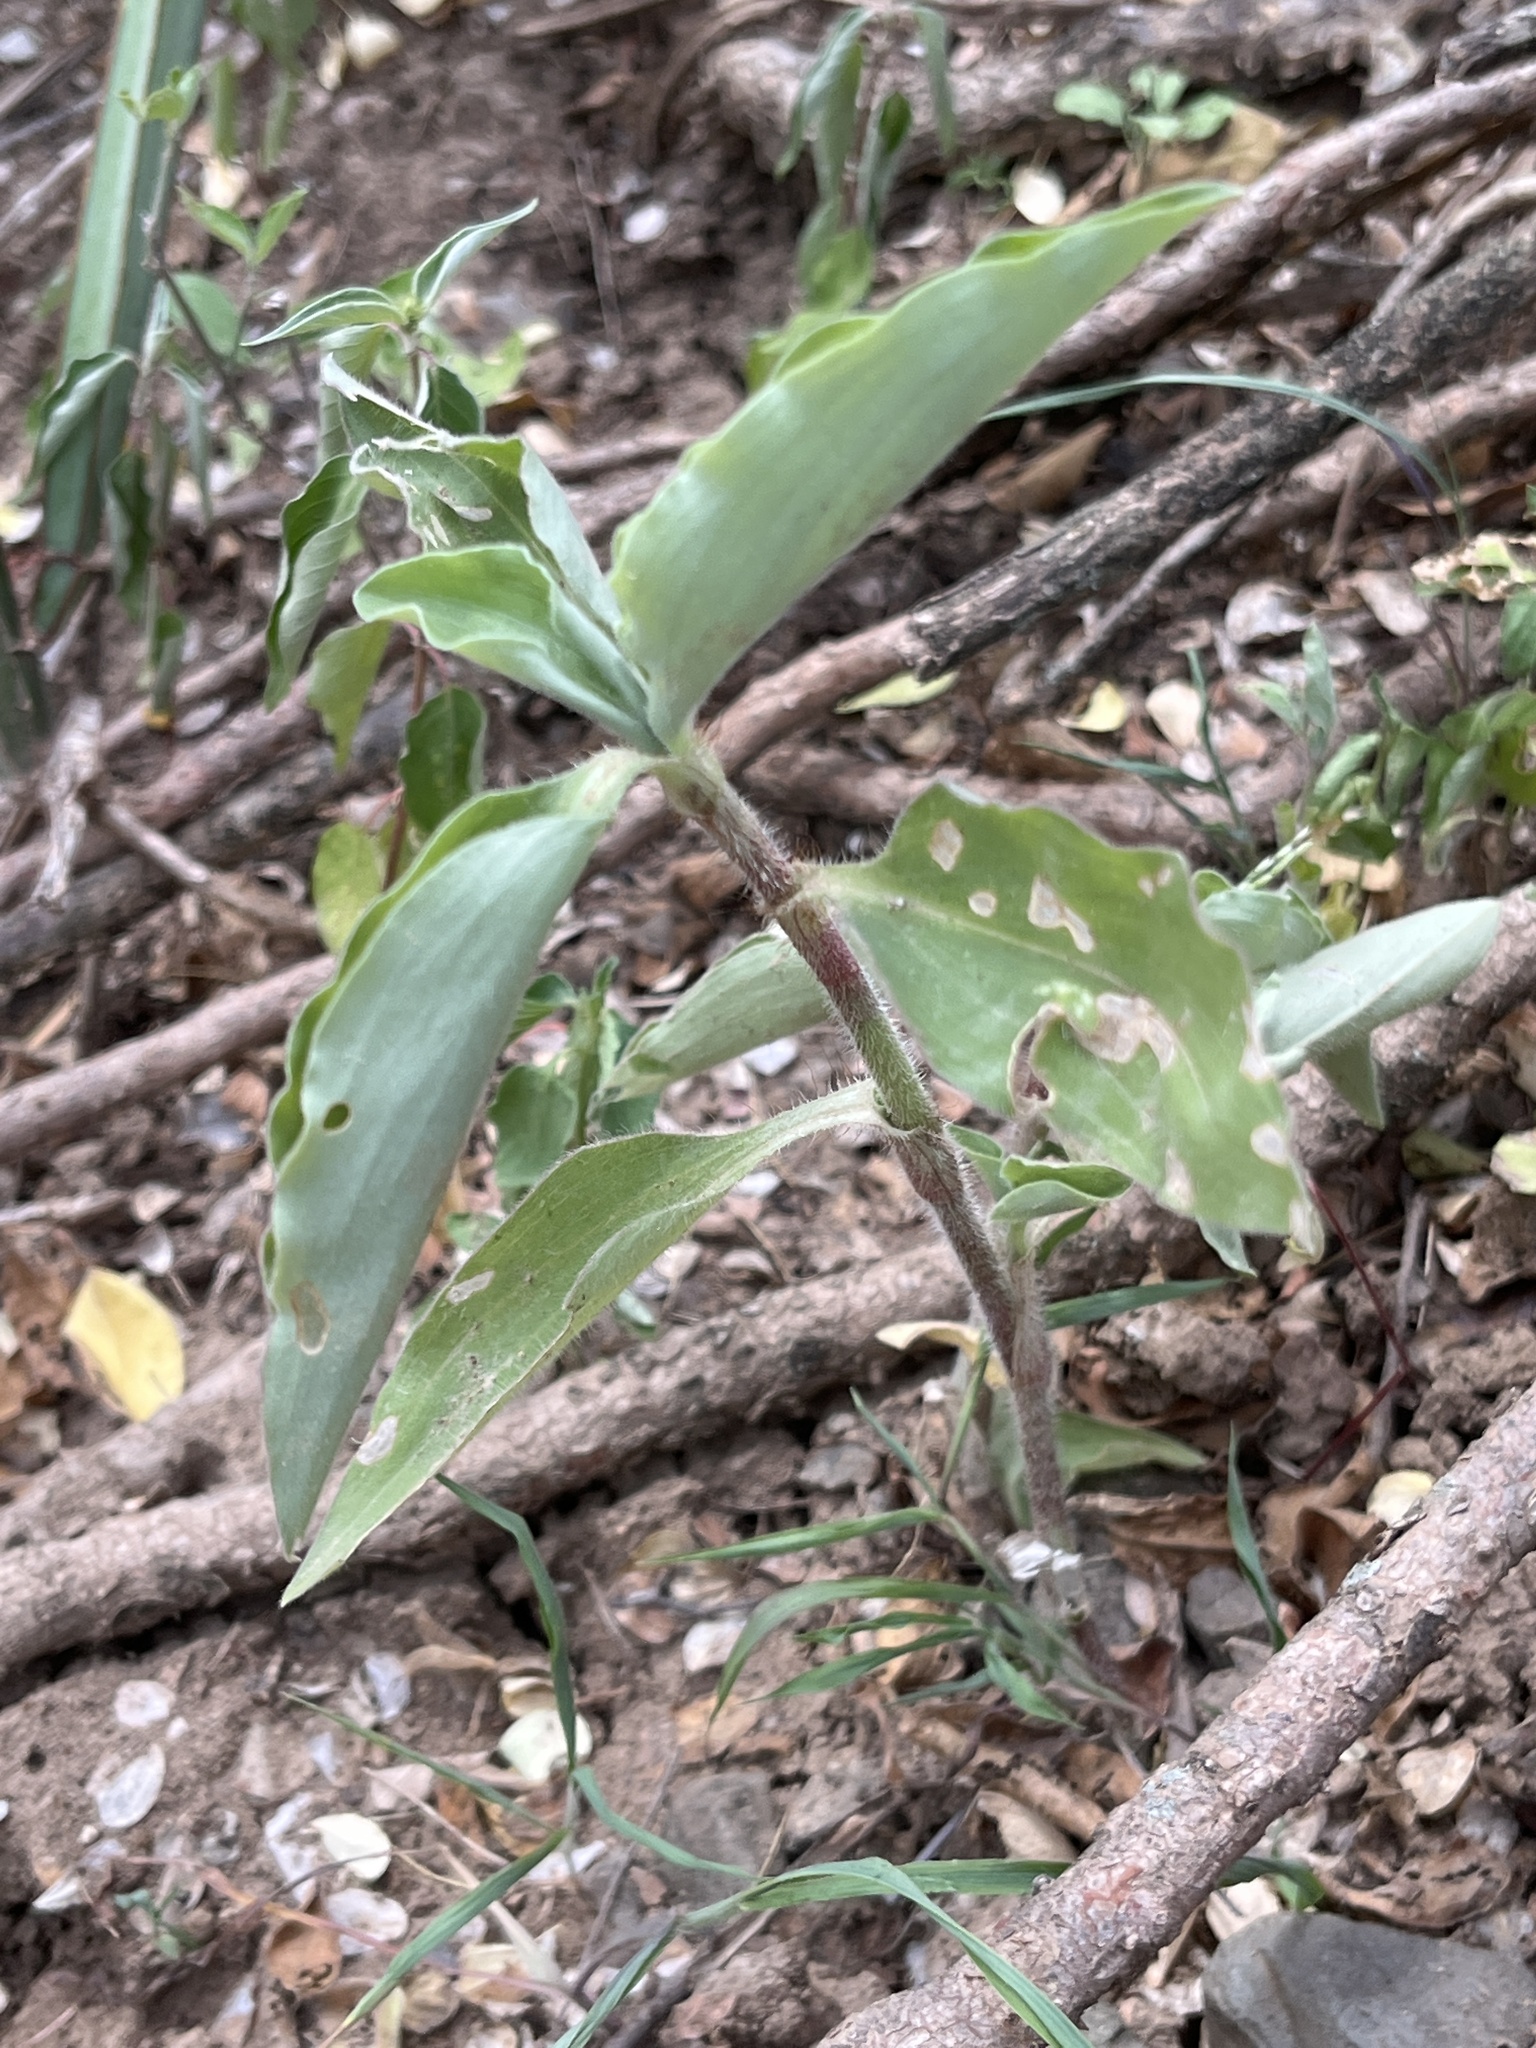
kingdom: Plantae
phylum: Tracheophyta
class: Liliopsida
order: Commelinales
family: Commelinaceae
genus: Commelina
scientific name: Commelina benghalensis
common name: Jio
